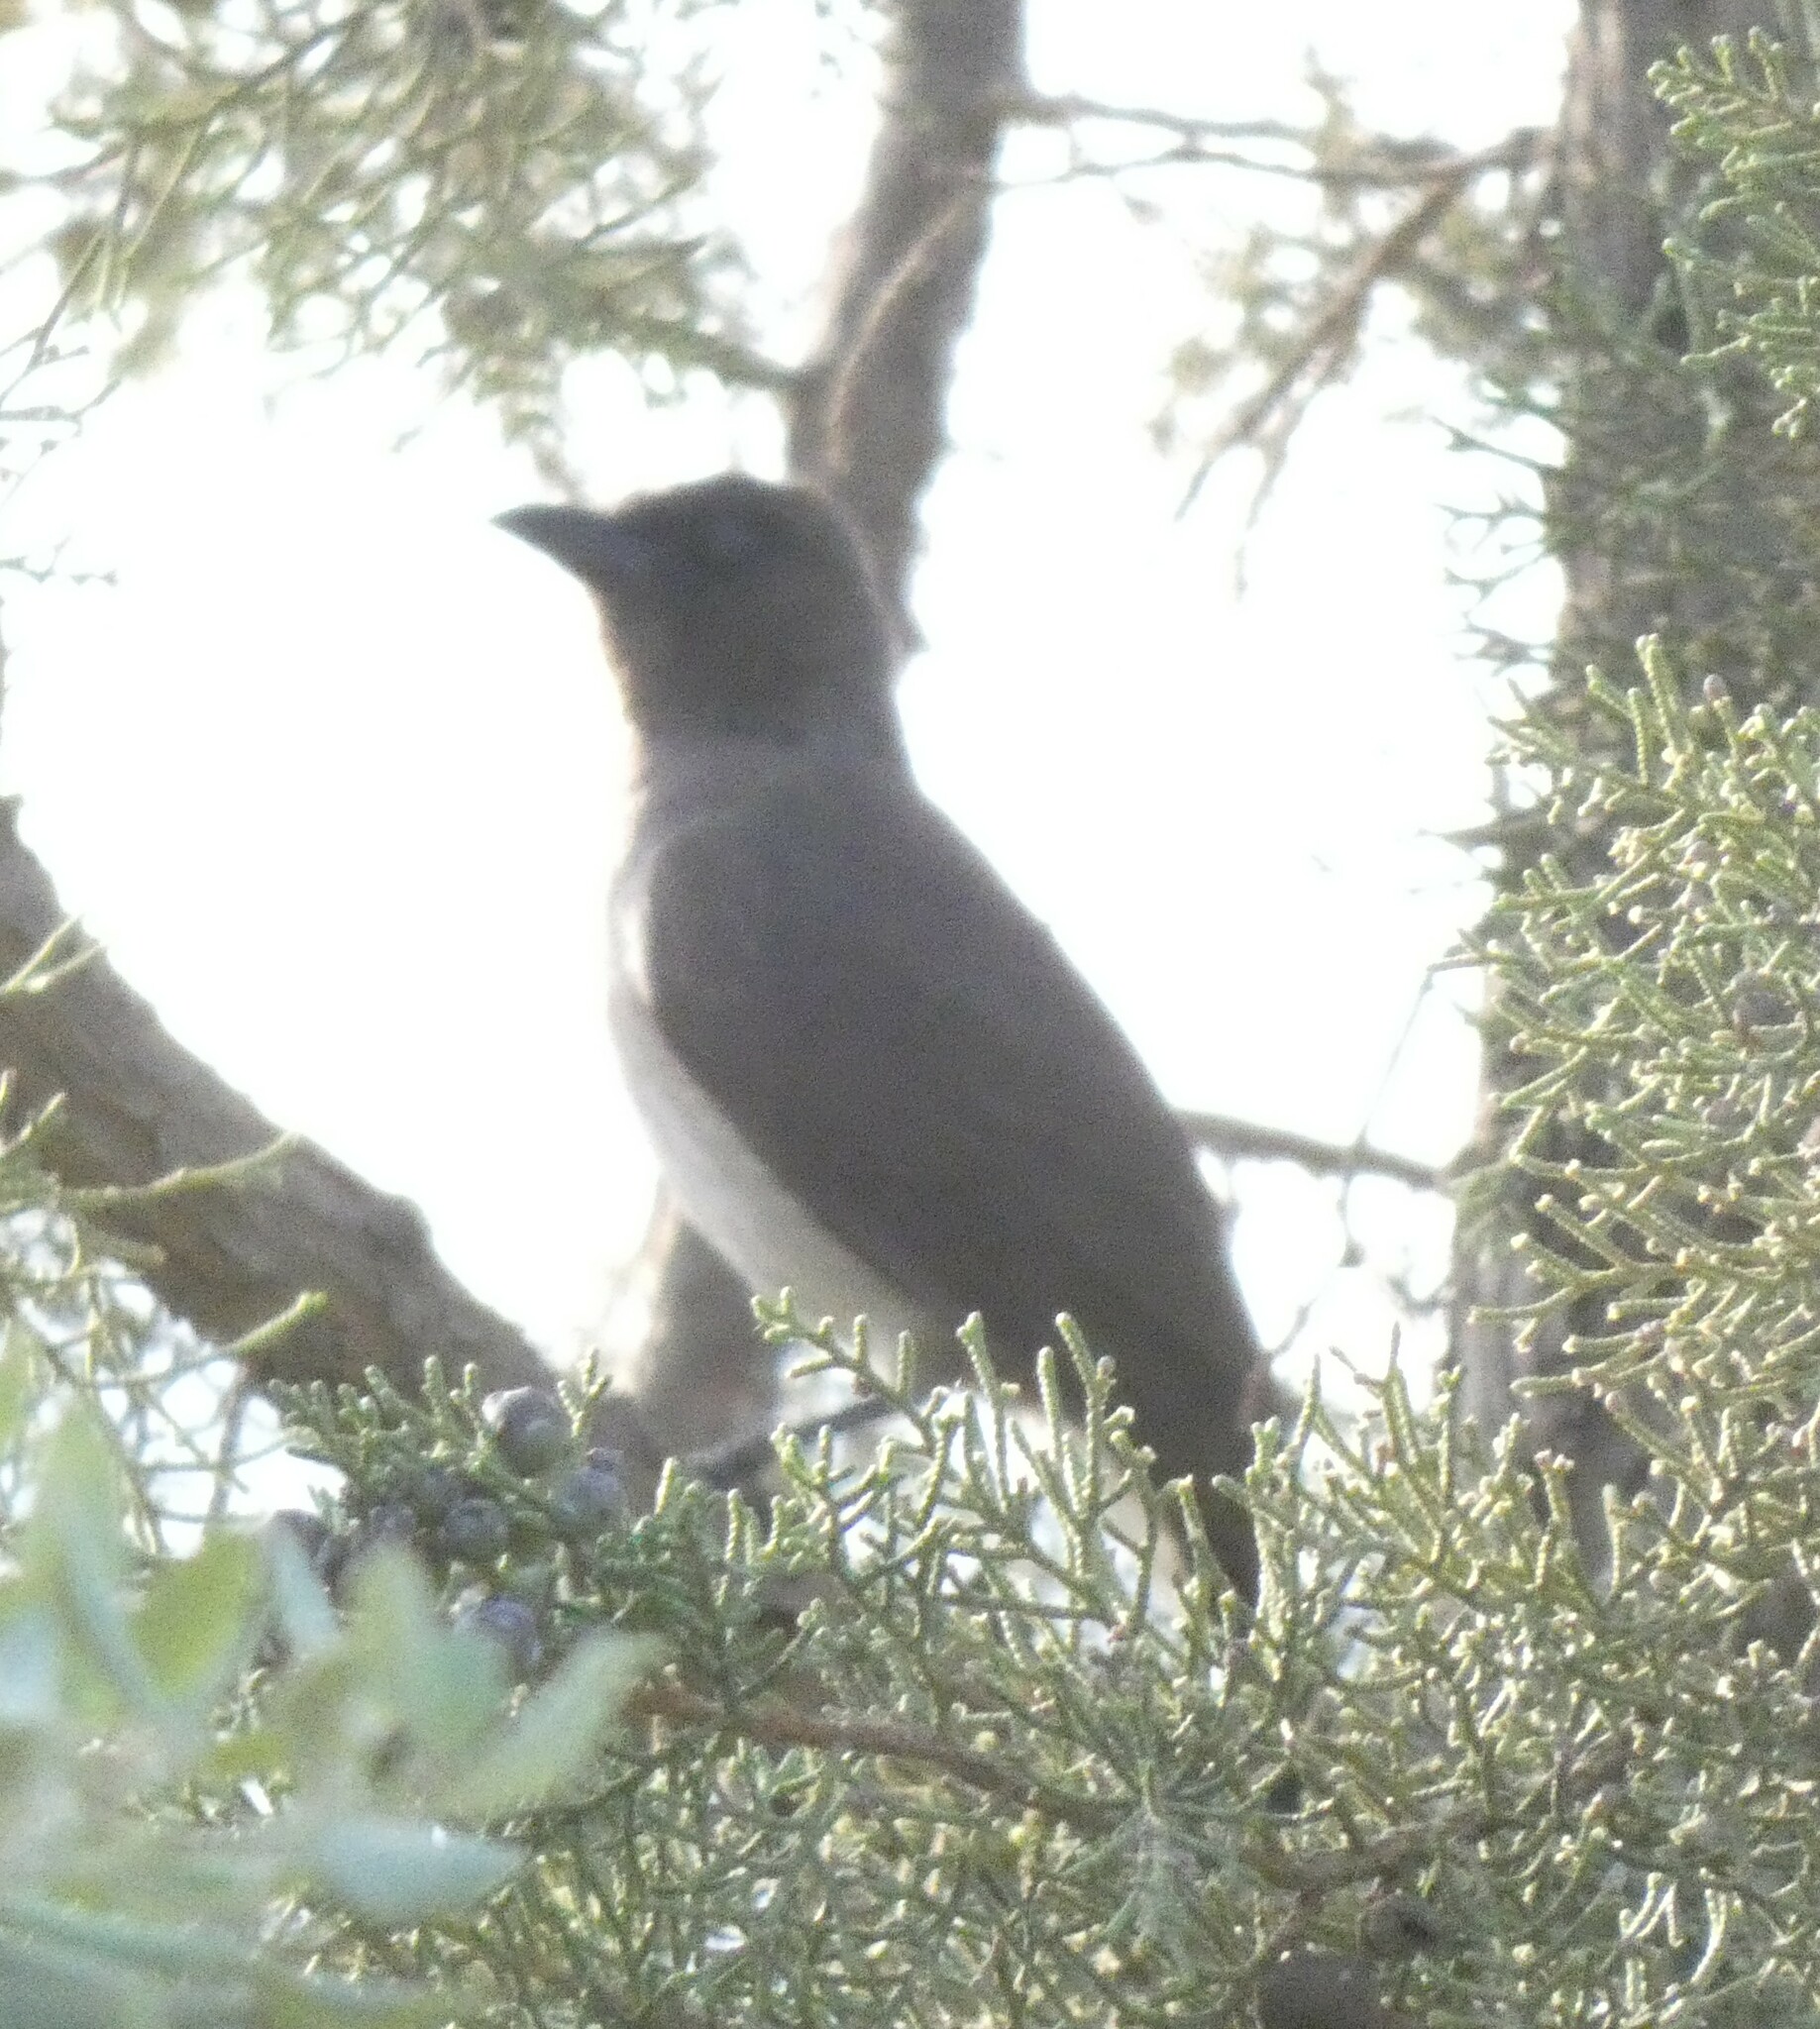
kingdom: Animalia
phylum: Chordata
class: Aves
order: Passeriformes
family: Pycnonotidae
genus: Pycnonotus
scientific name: Pycnonotus barbatus
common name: Common bulbul
